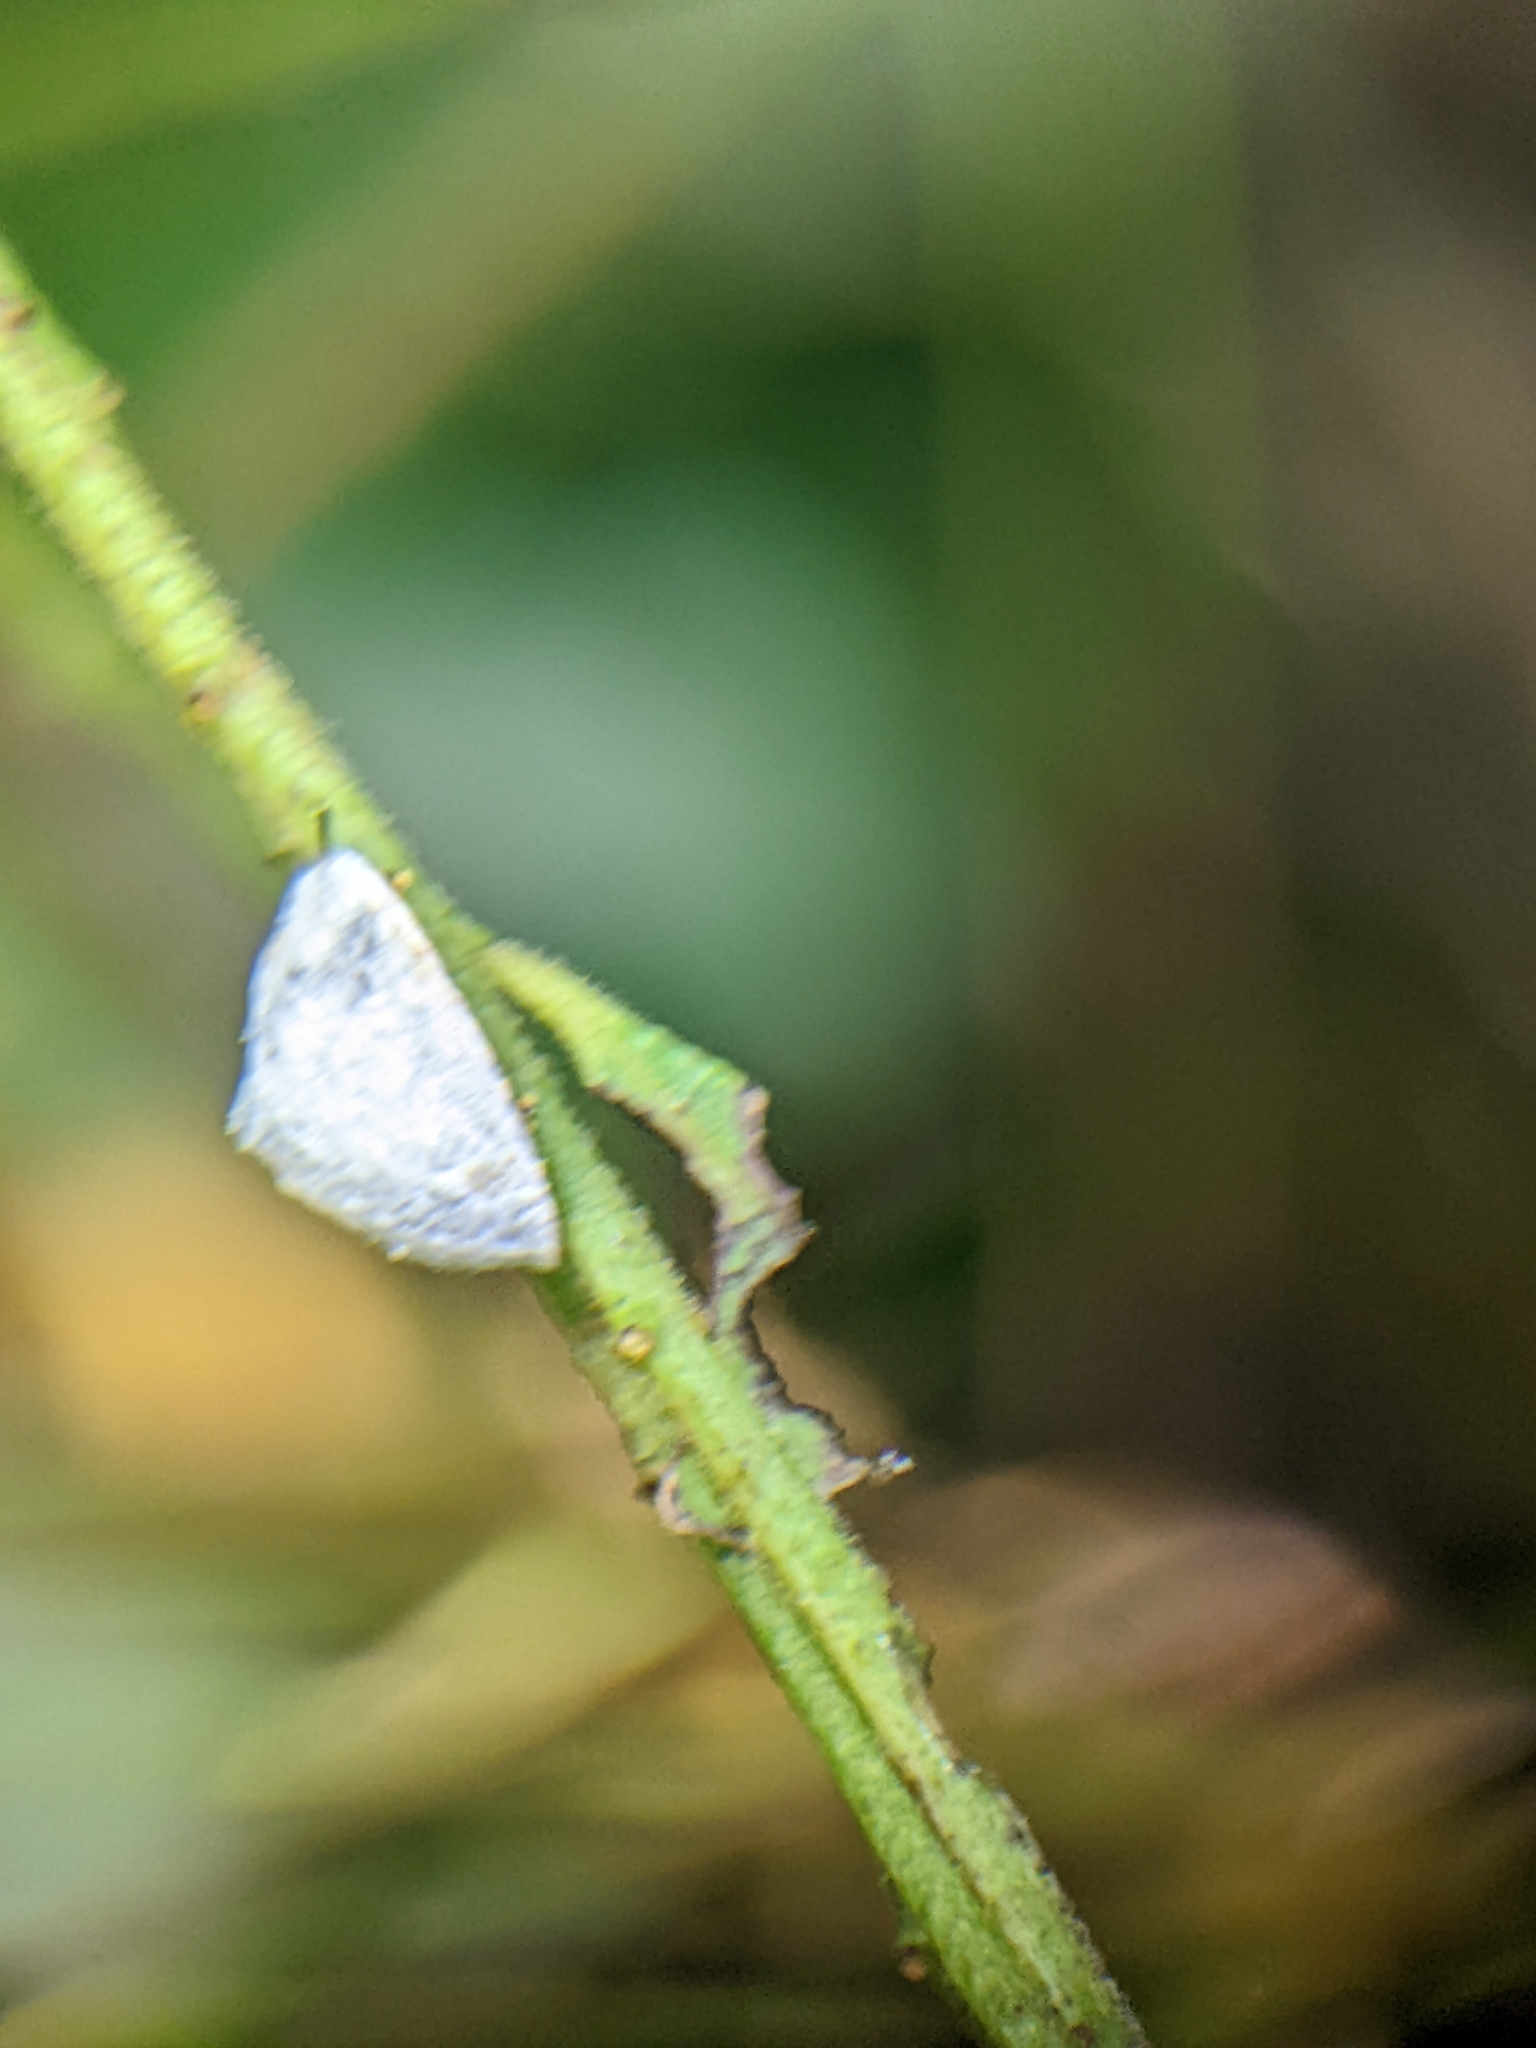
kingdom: Animalia
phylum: Arthropoda
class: Insecta
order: Coleoptera
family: Chrysomelidae
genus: Silana
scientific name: Silana farinosa
